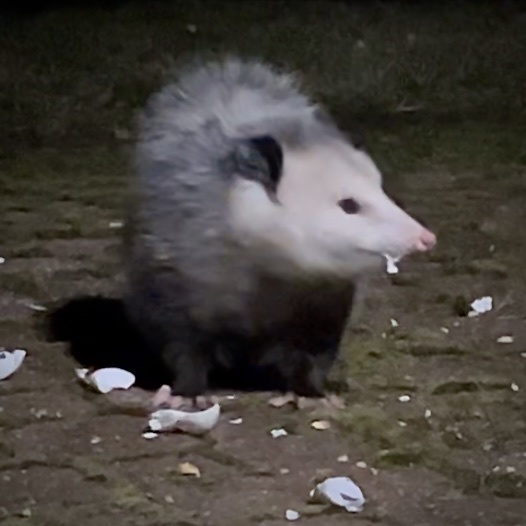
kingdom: Animalia
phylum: Chordata
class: Mammalia
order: Didelphimorphia
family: Didelphidae
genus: Didelphis
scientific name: Didelphis virginiana
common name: Virginia opossum
